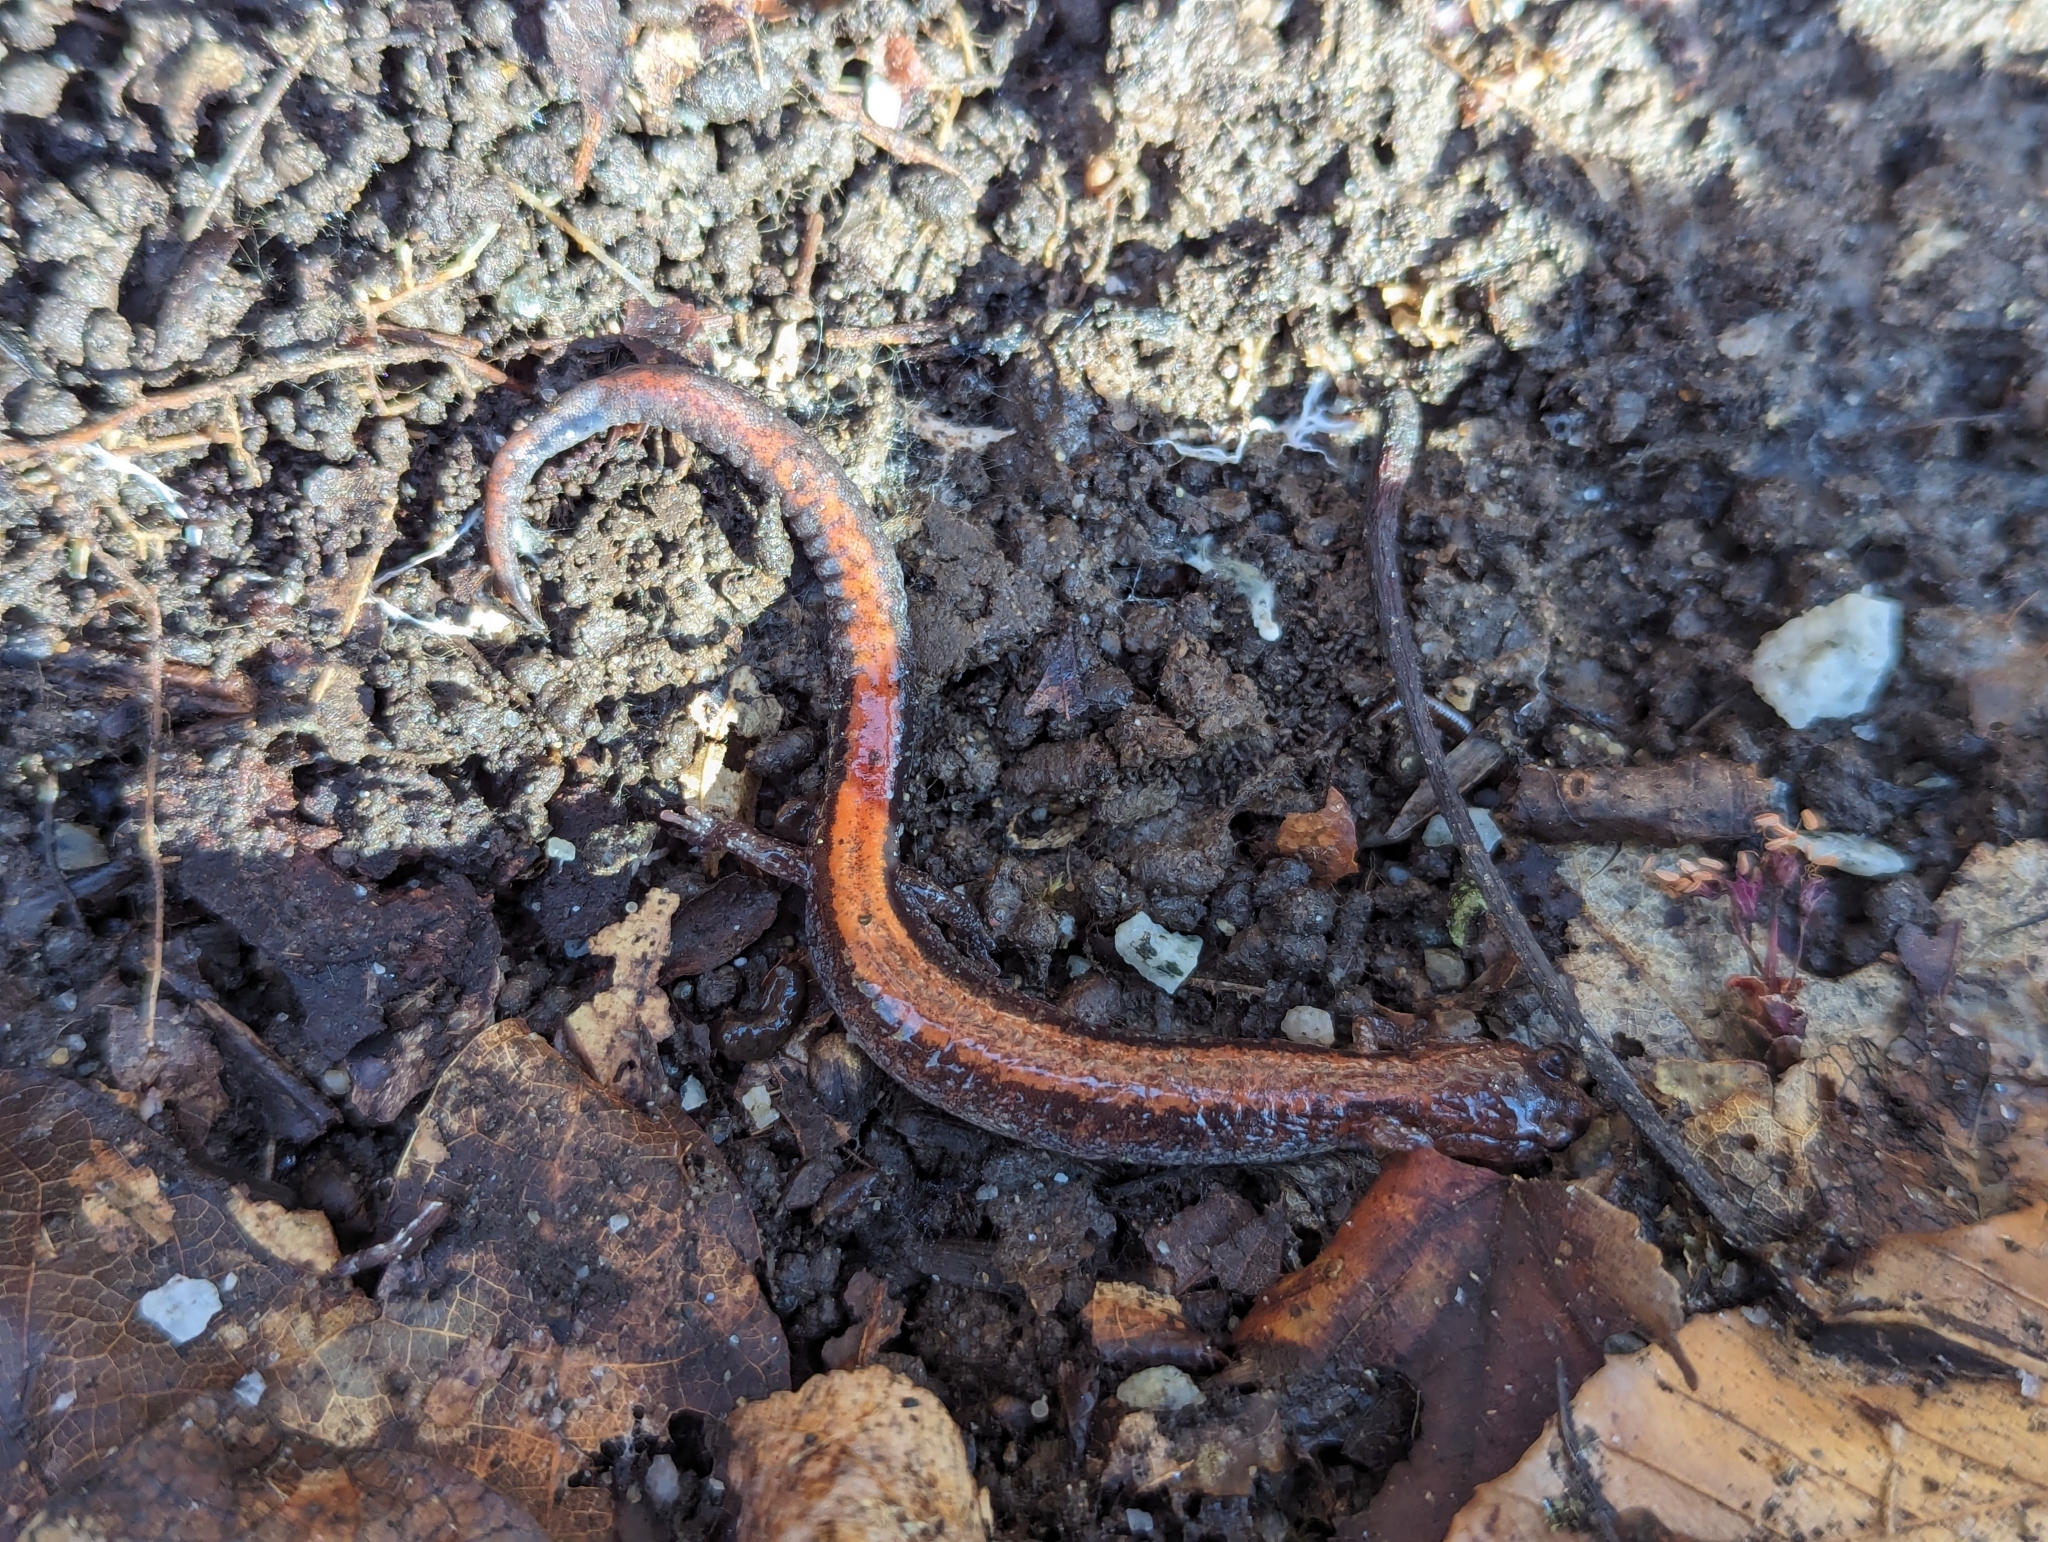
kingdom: Animalia
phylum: Chordata
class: Amphibia
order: Caudata
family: Plethodontidae
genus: Plethodon
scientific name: Plethodon cinereus
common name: Redback salamander
